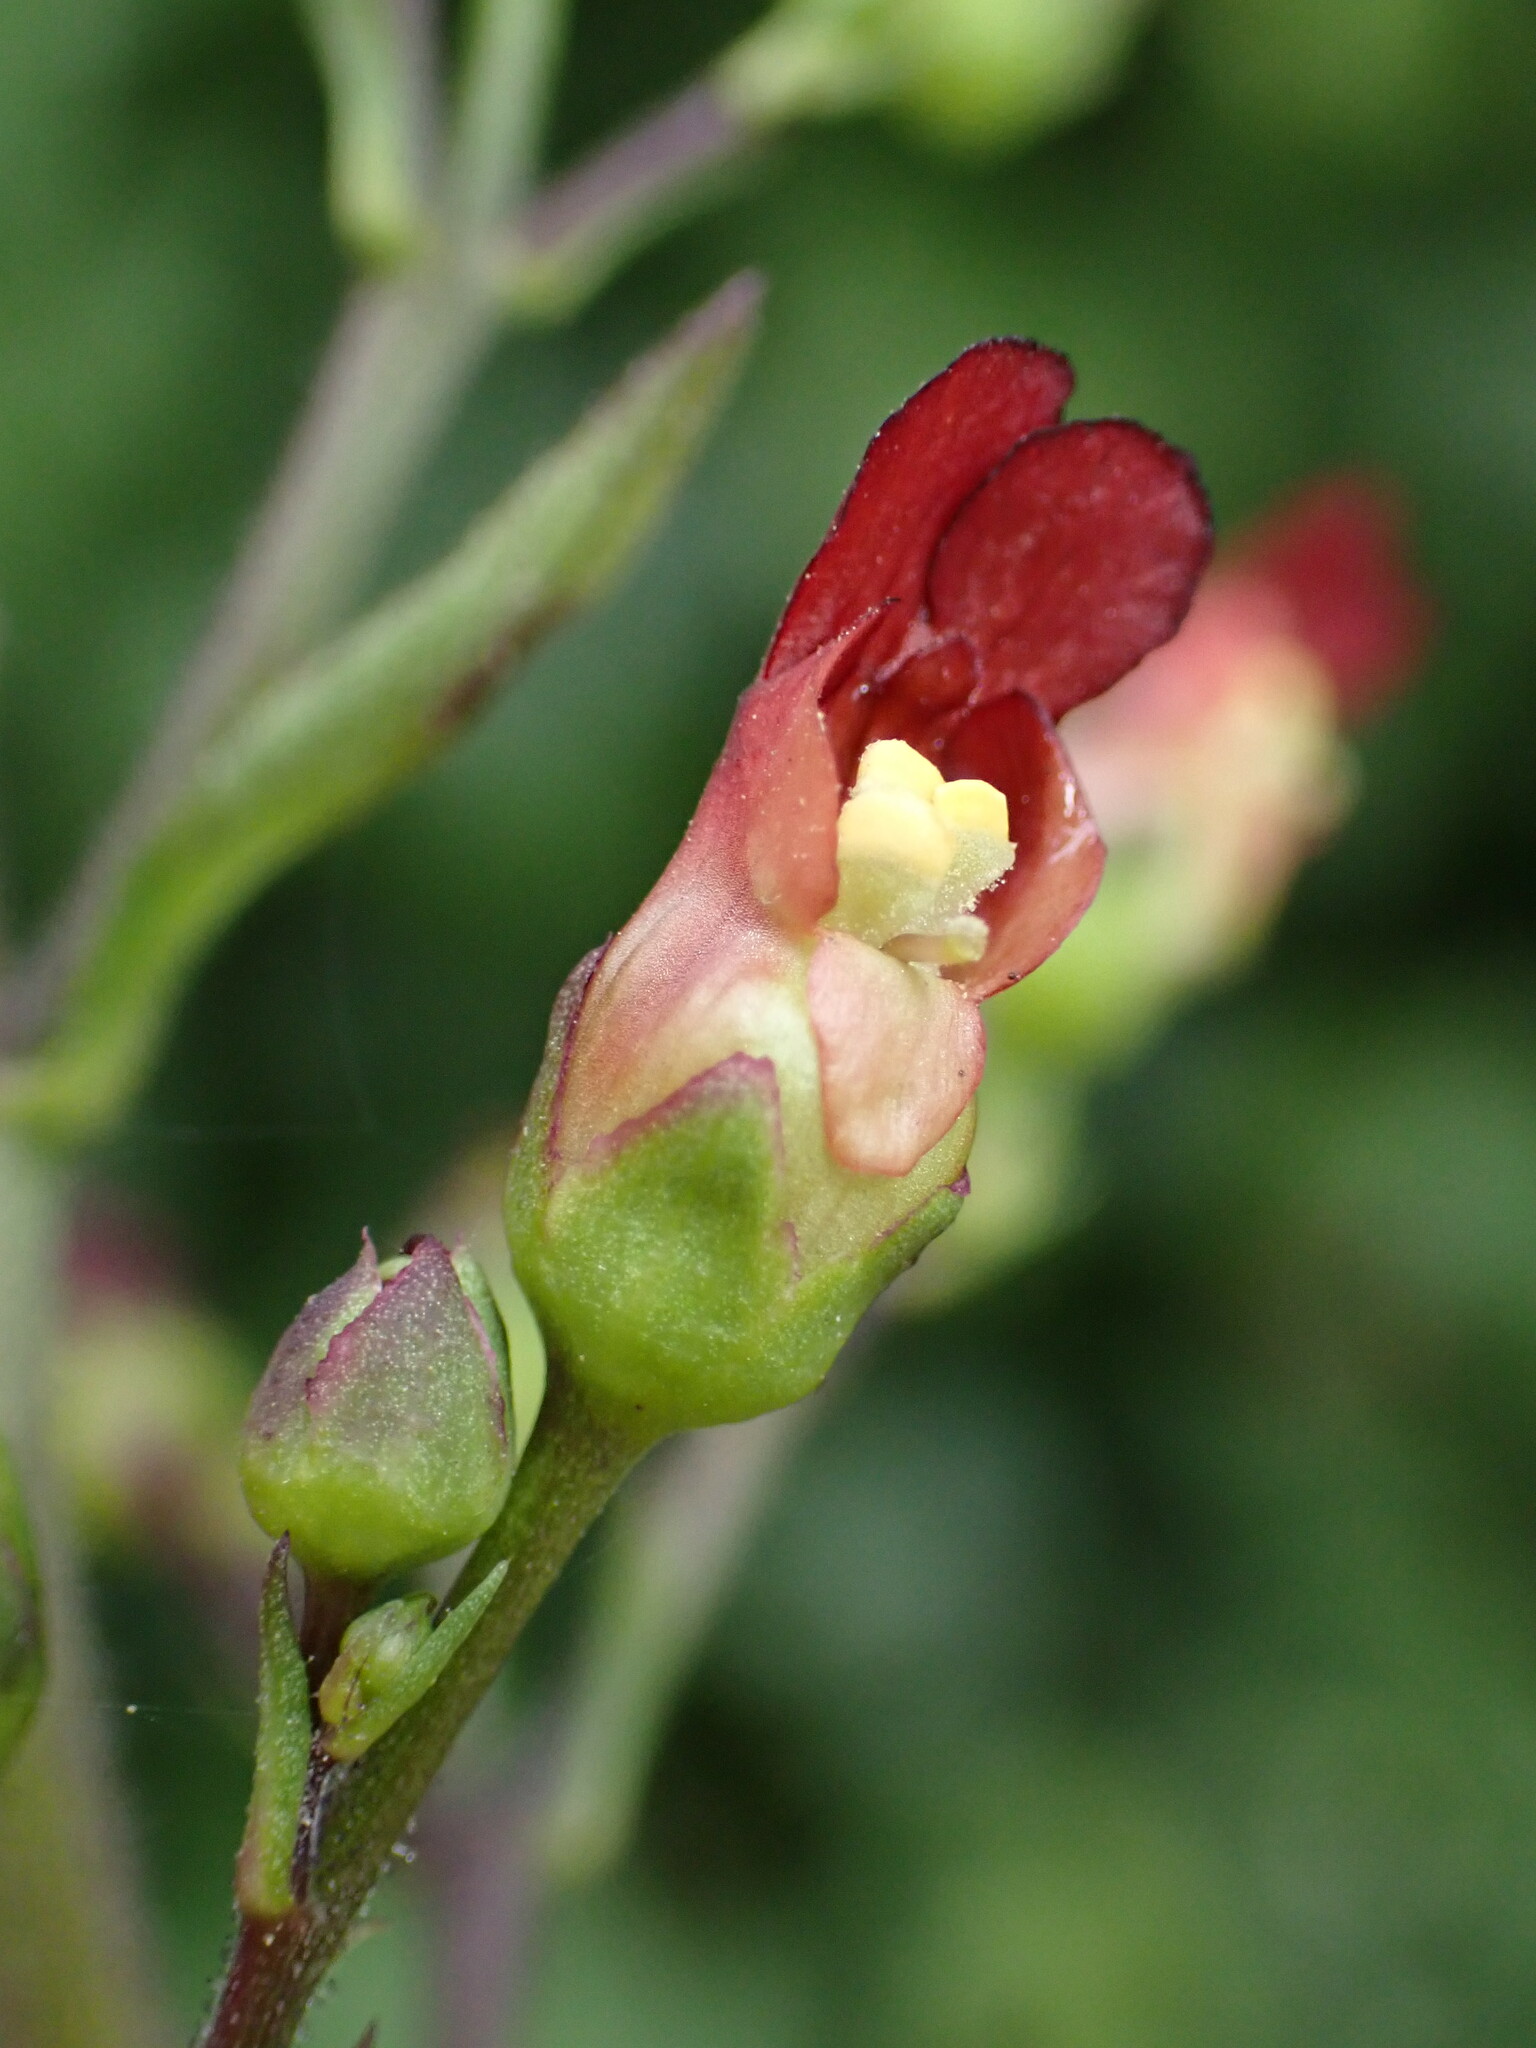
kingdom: Plantae
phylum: Tracheophyta
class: Magnoliopsida
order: Lamiales
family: Scrophulariaceae
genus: Scrophularia
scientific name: Scrophularia californica
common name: California figwort
